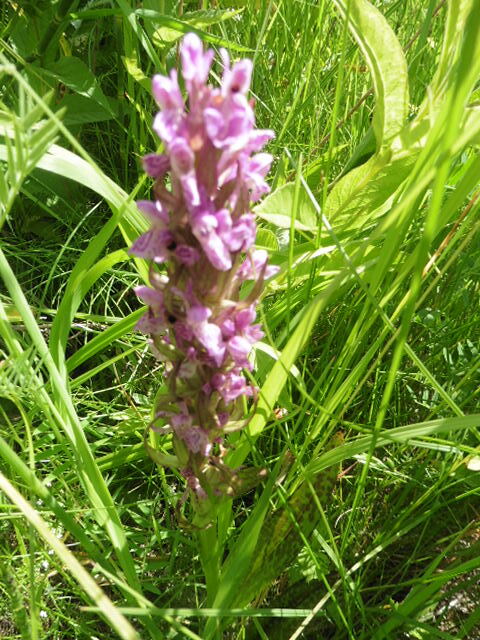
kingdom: Plantae
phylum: Tracheophyta
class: Liliopsida
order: Asparagales
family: Orchidaceae
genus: Dactylorhiza
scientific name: Dactylorhiza incarnata
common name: Early marsh-orchid
